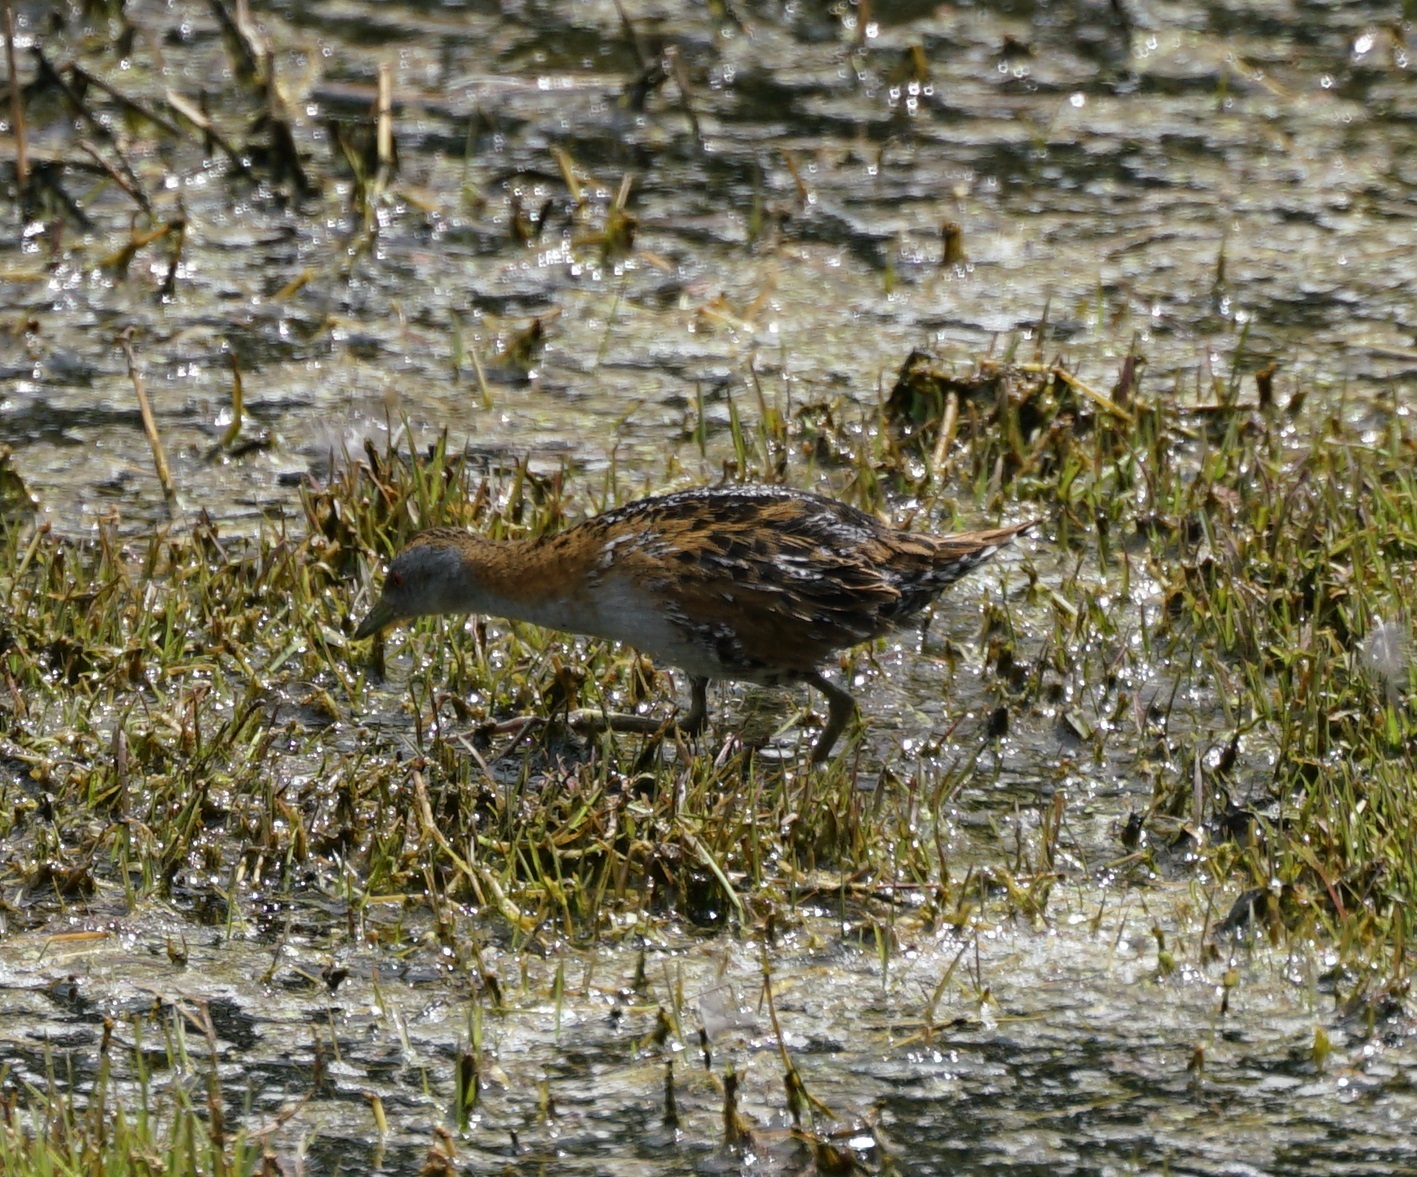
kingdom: Animalia
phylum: Chordata
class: Aves
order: Gruiformes
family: Rallidae
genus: Porzana
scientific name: Porzana pusilla
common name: Baillon's crake
